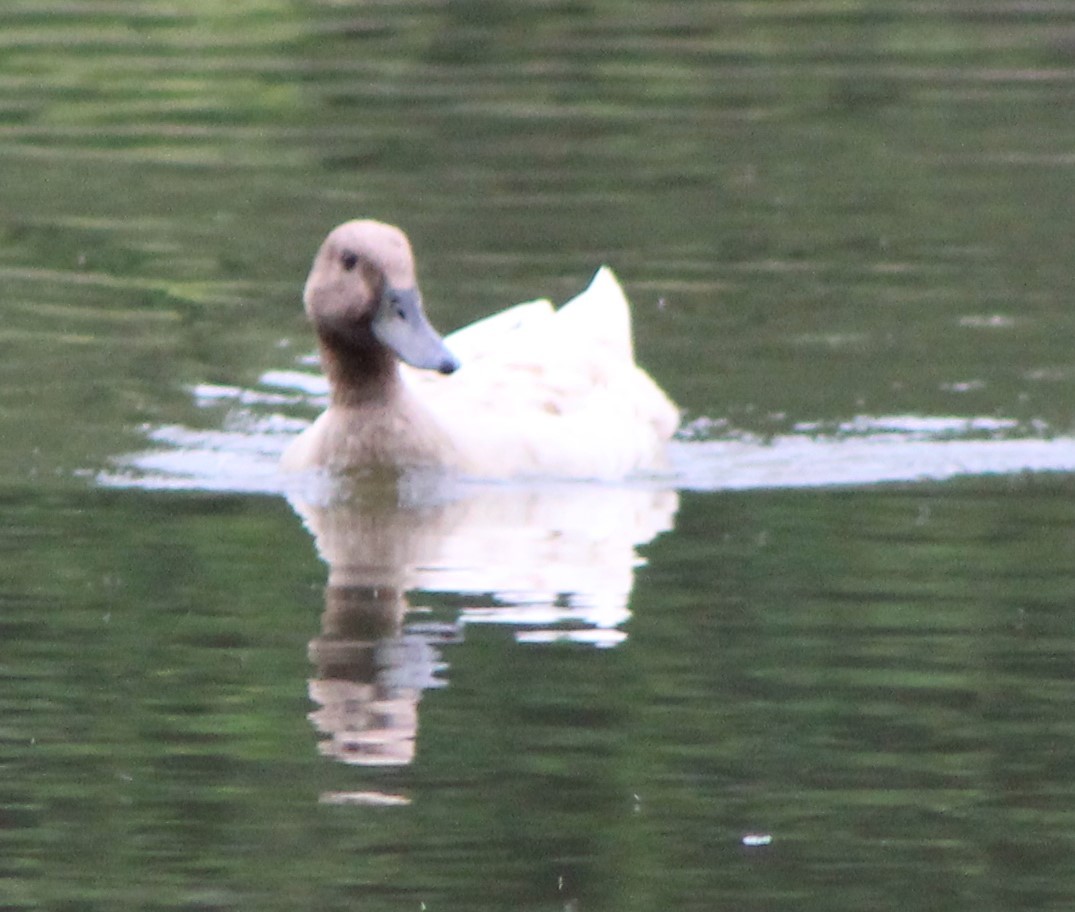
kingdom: Animalia
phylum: Chordata
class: Aves
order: Anseriformes
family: Anatidae
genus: Anas
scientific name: Anas platyrhynchos
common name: Mallard
